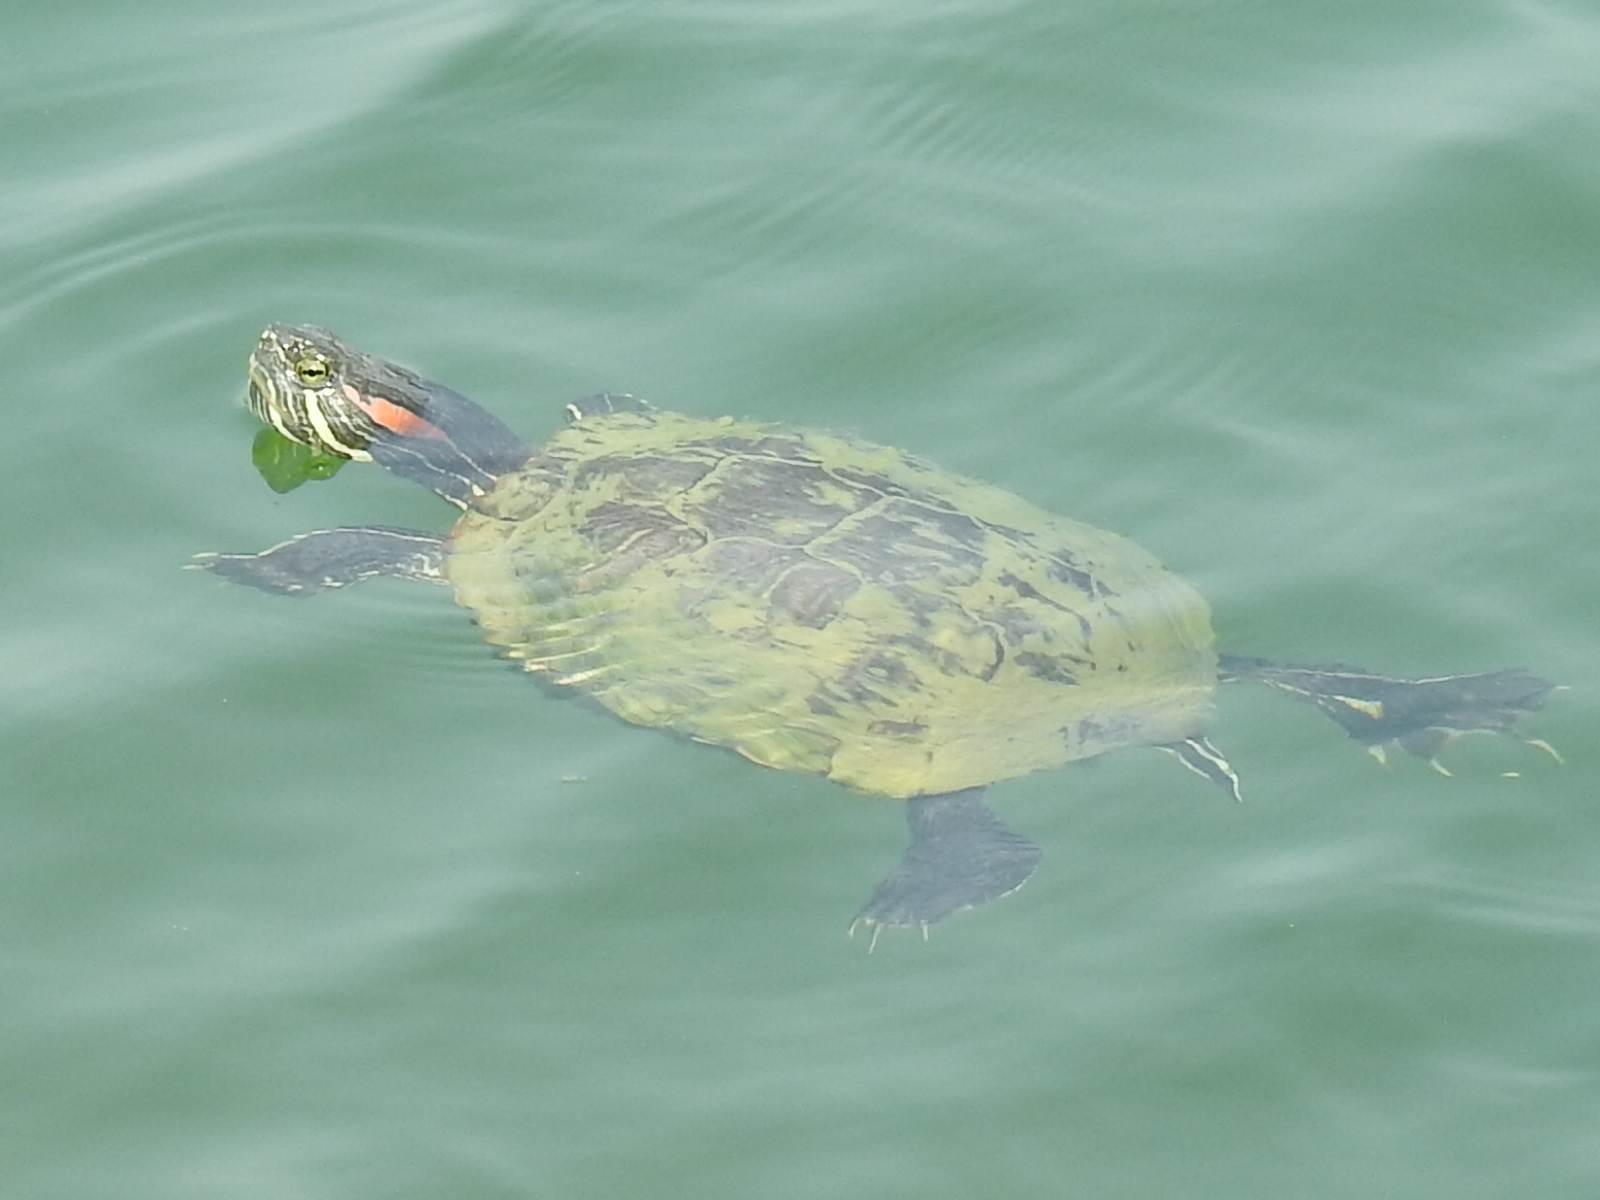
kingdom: Animalia
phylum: Chordata
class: Testudines
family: Emydidae
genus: Trachemys
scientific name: Trachemys scripta
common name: Slider
